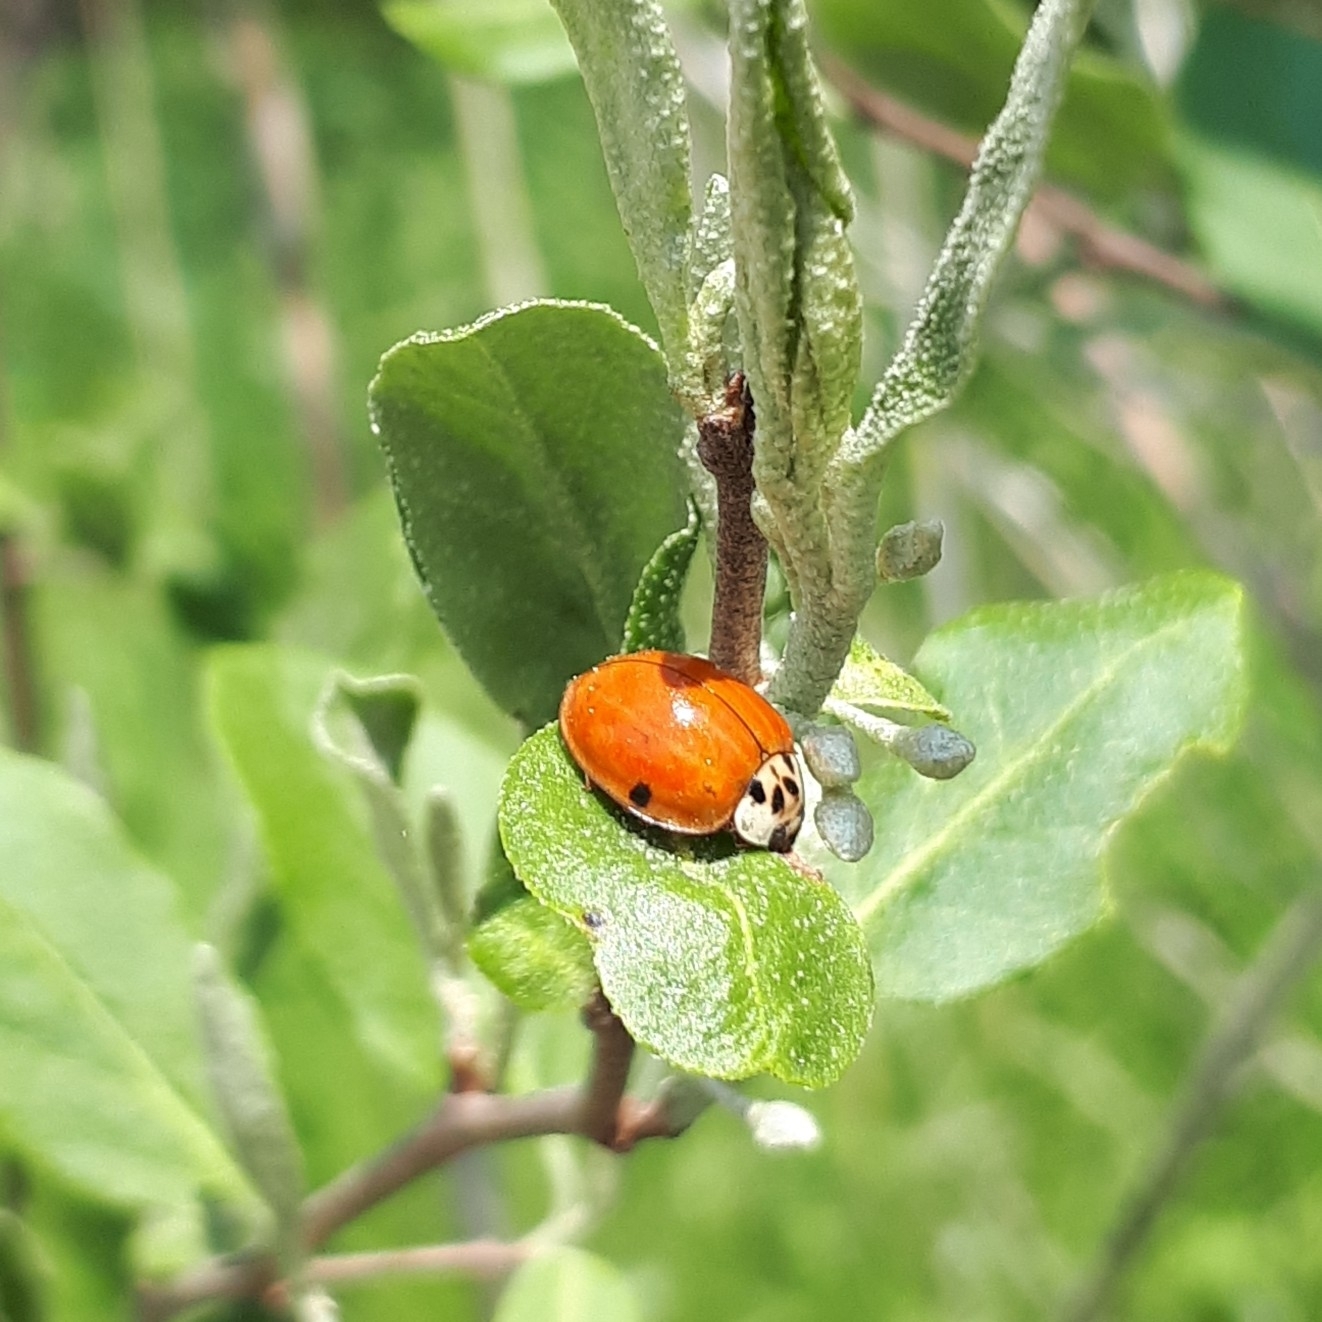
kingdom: Animalia
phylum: Arthropoda
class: Insecta
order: Coleoptera
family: Coccinellidae
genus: Harmonia
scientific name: Harmonia axyridis
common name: Harlequin ladybird
